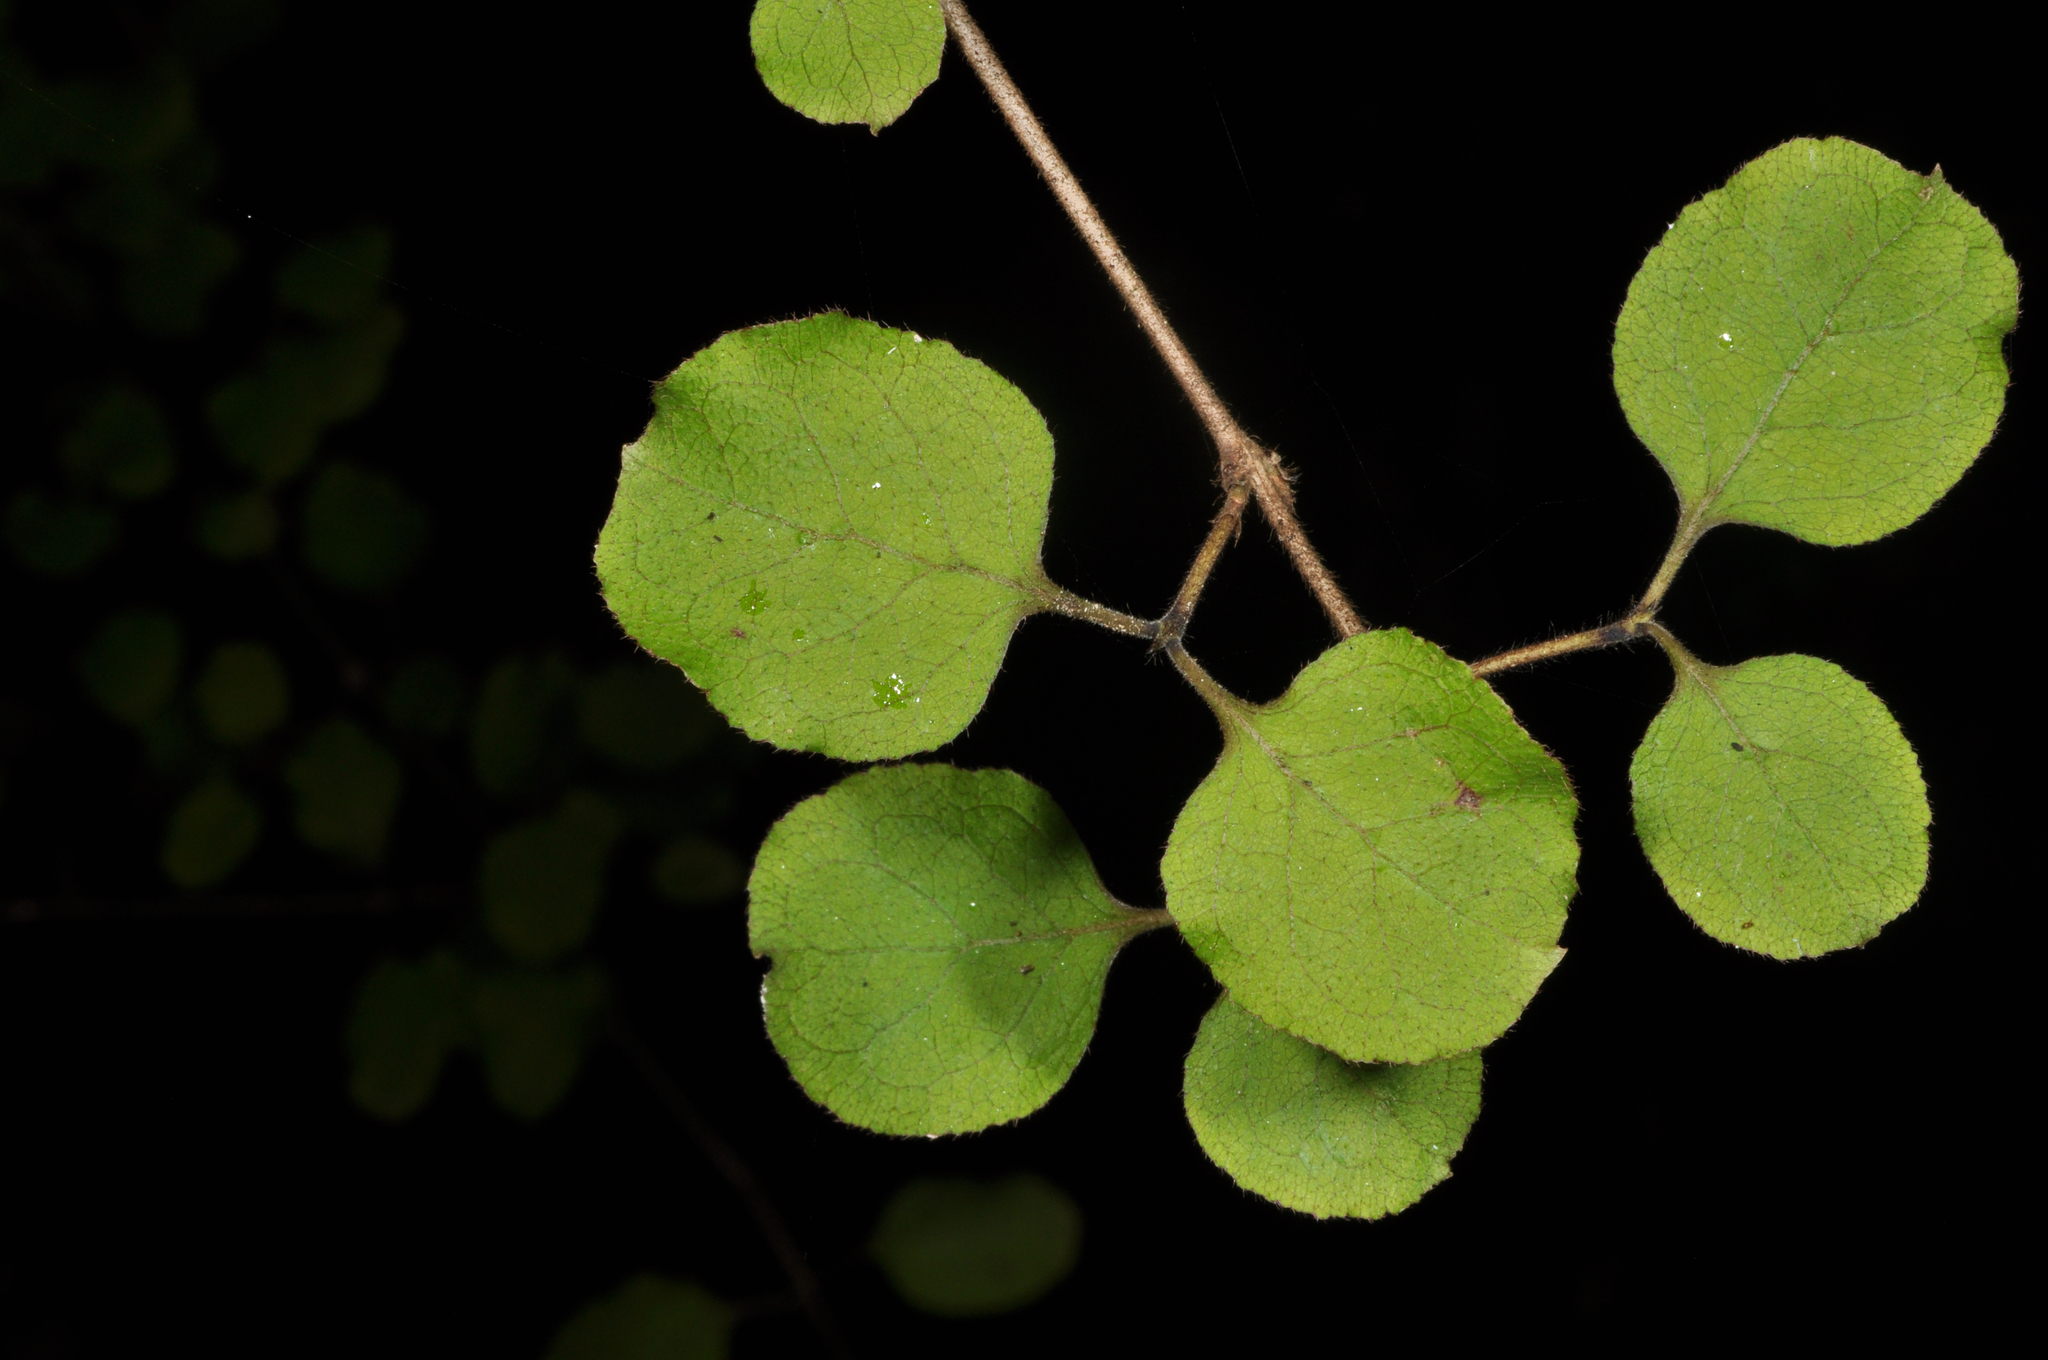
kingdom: Plantae
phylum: Tracheophyta
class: Magnoliopsida
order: Gentianales
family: Rubiaceae
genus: Coprosma
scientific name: Coprosma rotundifolia
